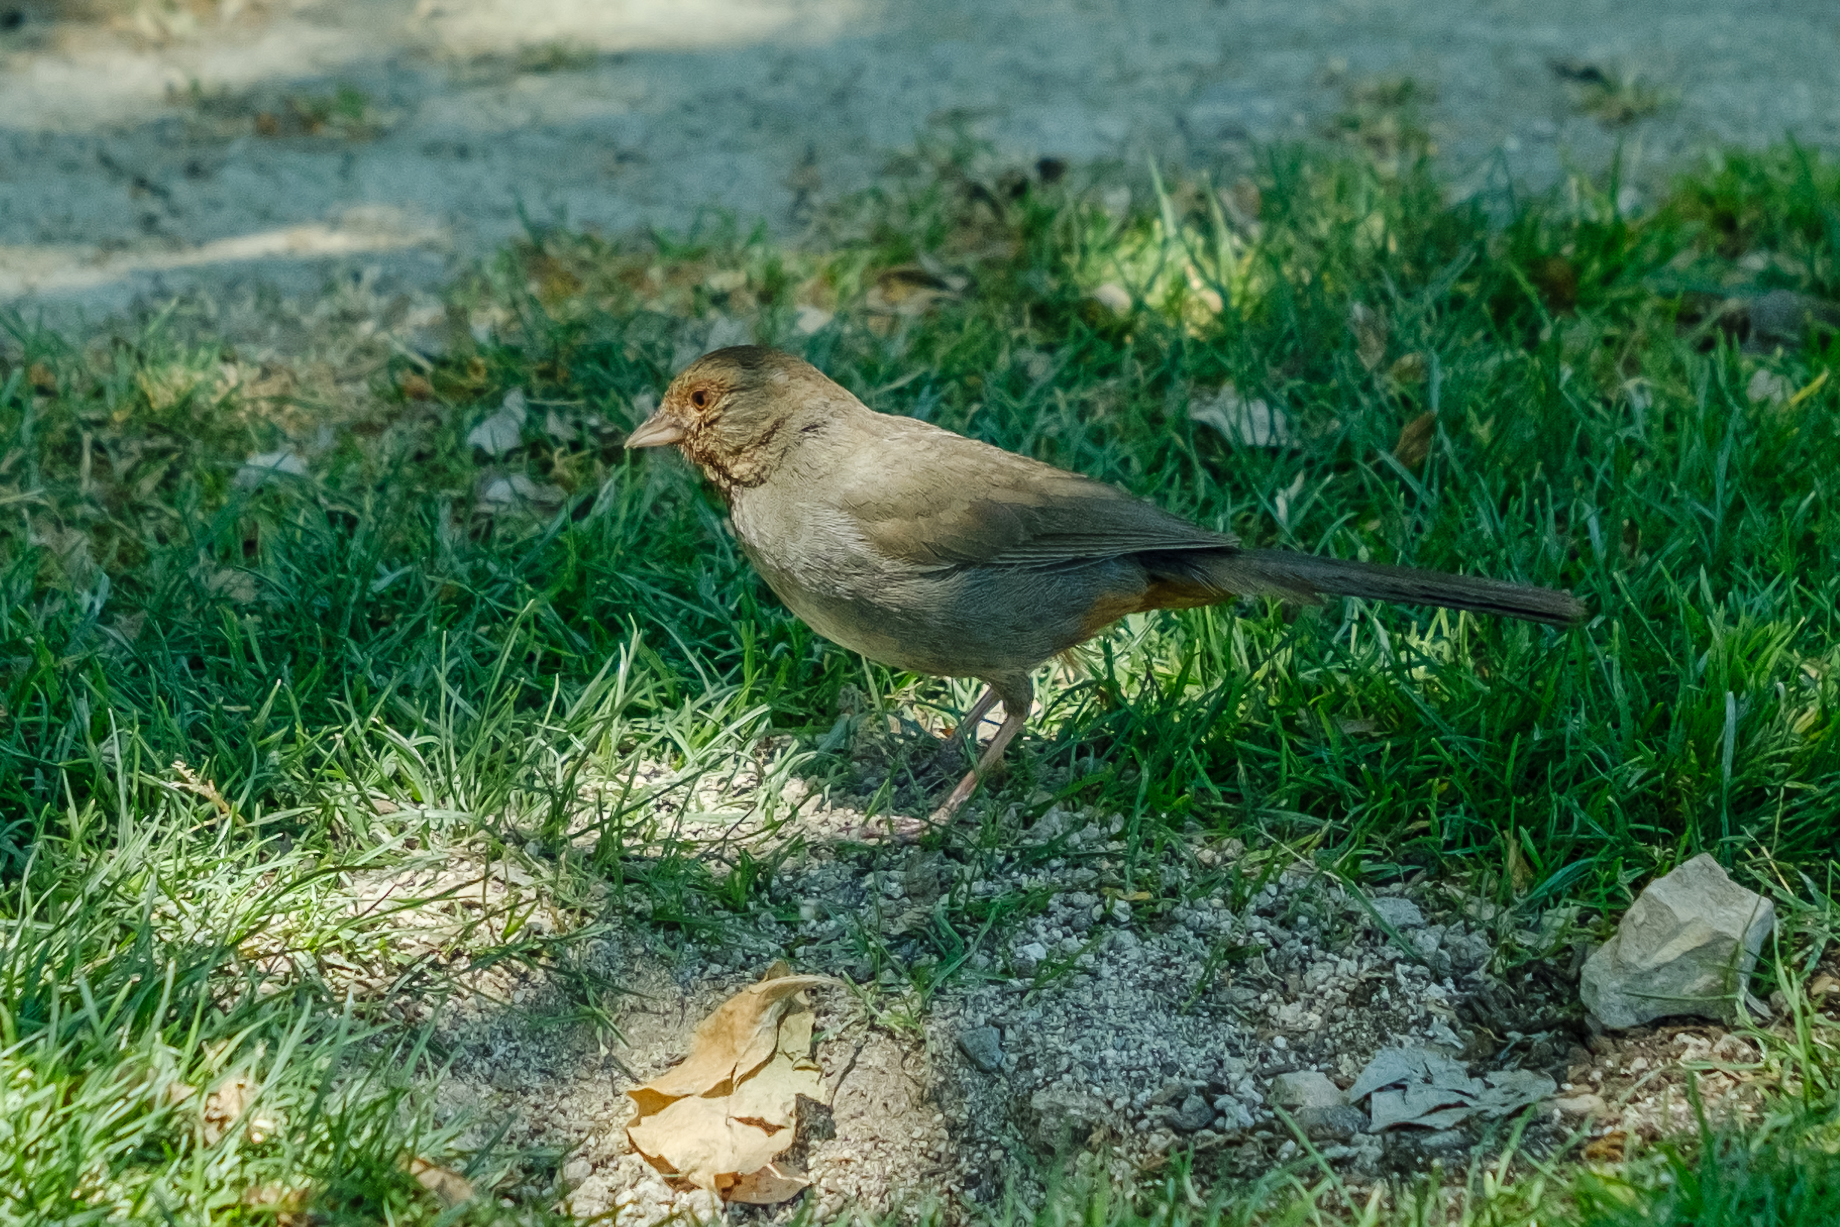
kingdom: Animalia
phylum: Chordata
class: Aves
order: Passeriformes
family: Passerellidae
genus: Melozone
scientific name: Melozone crissalis
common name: California towhee
